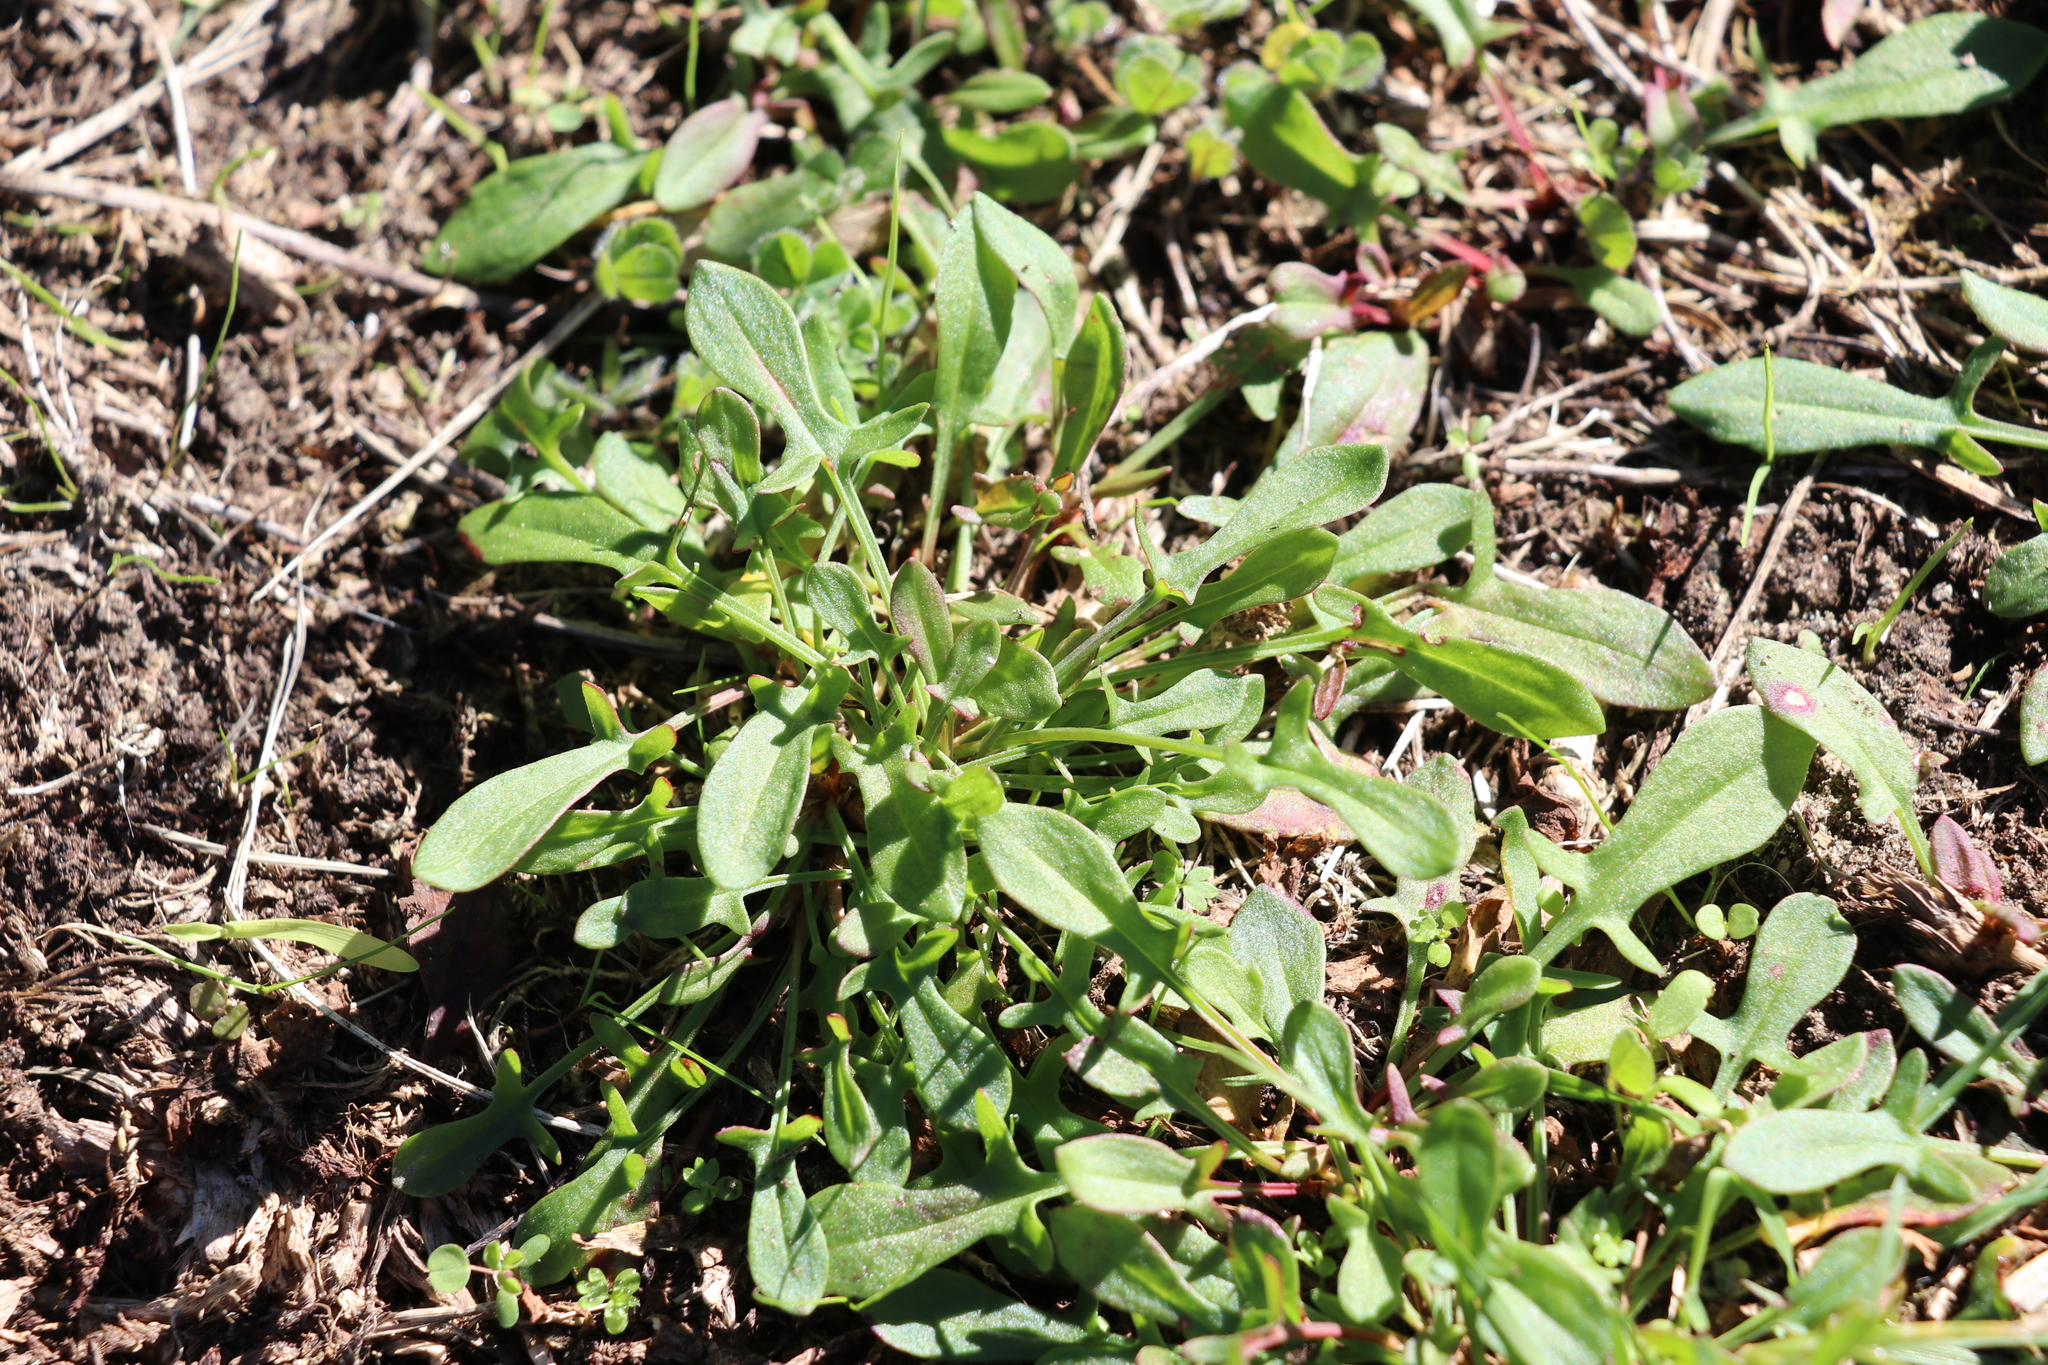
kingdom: Plantae
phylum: Tracheophyta
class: Magnoliopsida
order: Caryophyllales
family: Polygonaceae
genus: Rumex
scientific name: Rumex acetosella
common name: Common sheep sorrel
